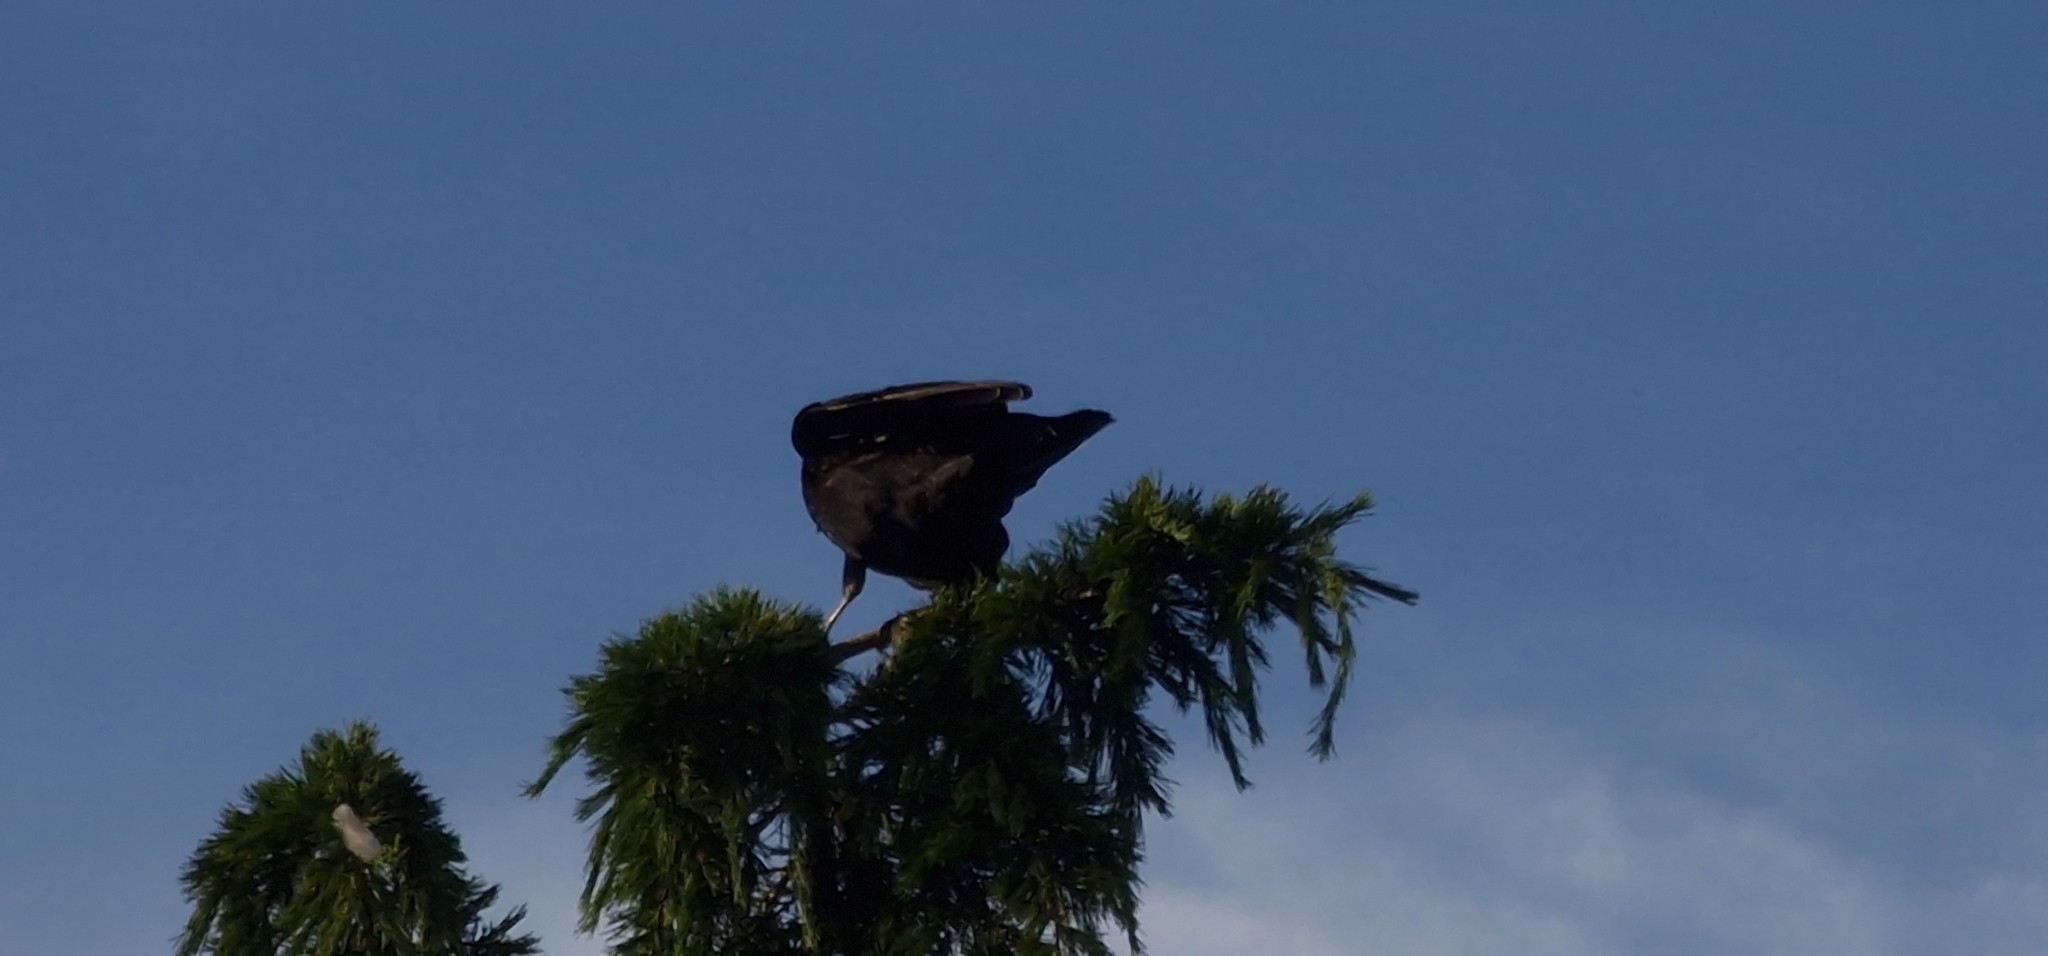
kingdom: Animalia
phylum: Chordata
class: Aves
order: Passeriformes
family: Corvidae
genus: Corvus
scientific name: Corvus corone
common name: Carrion crow
